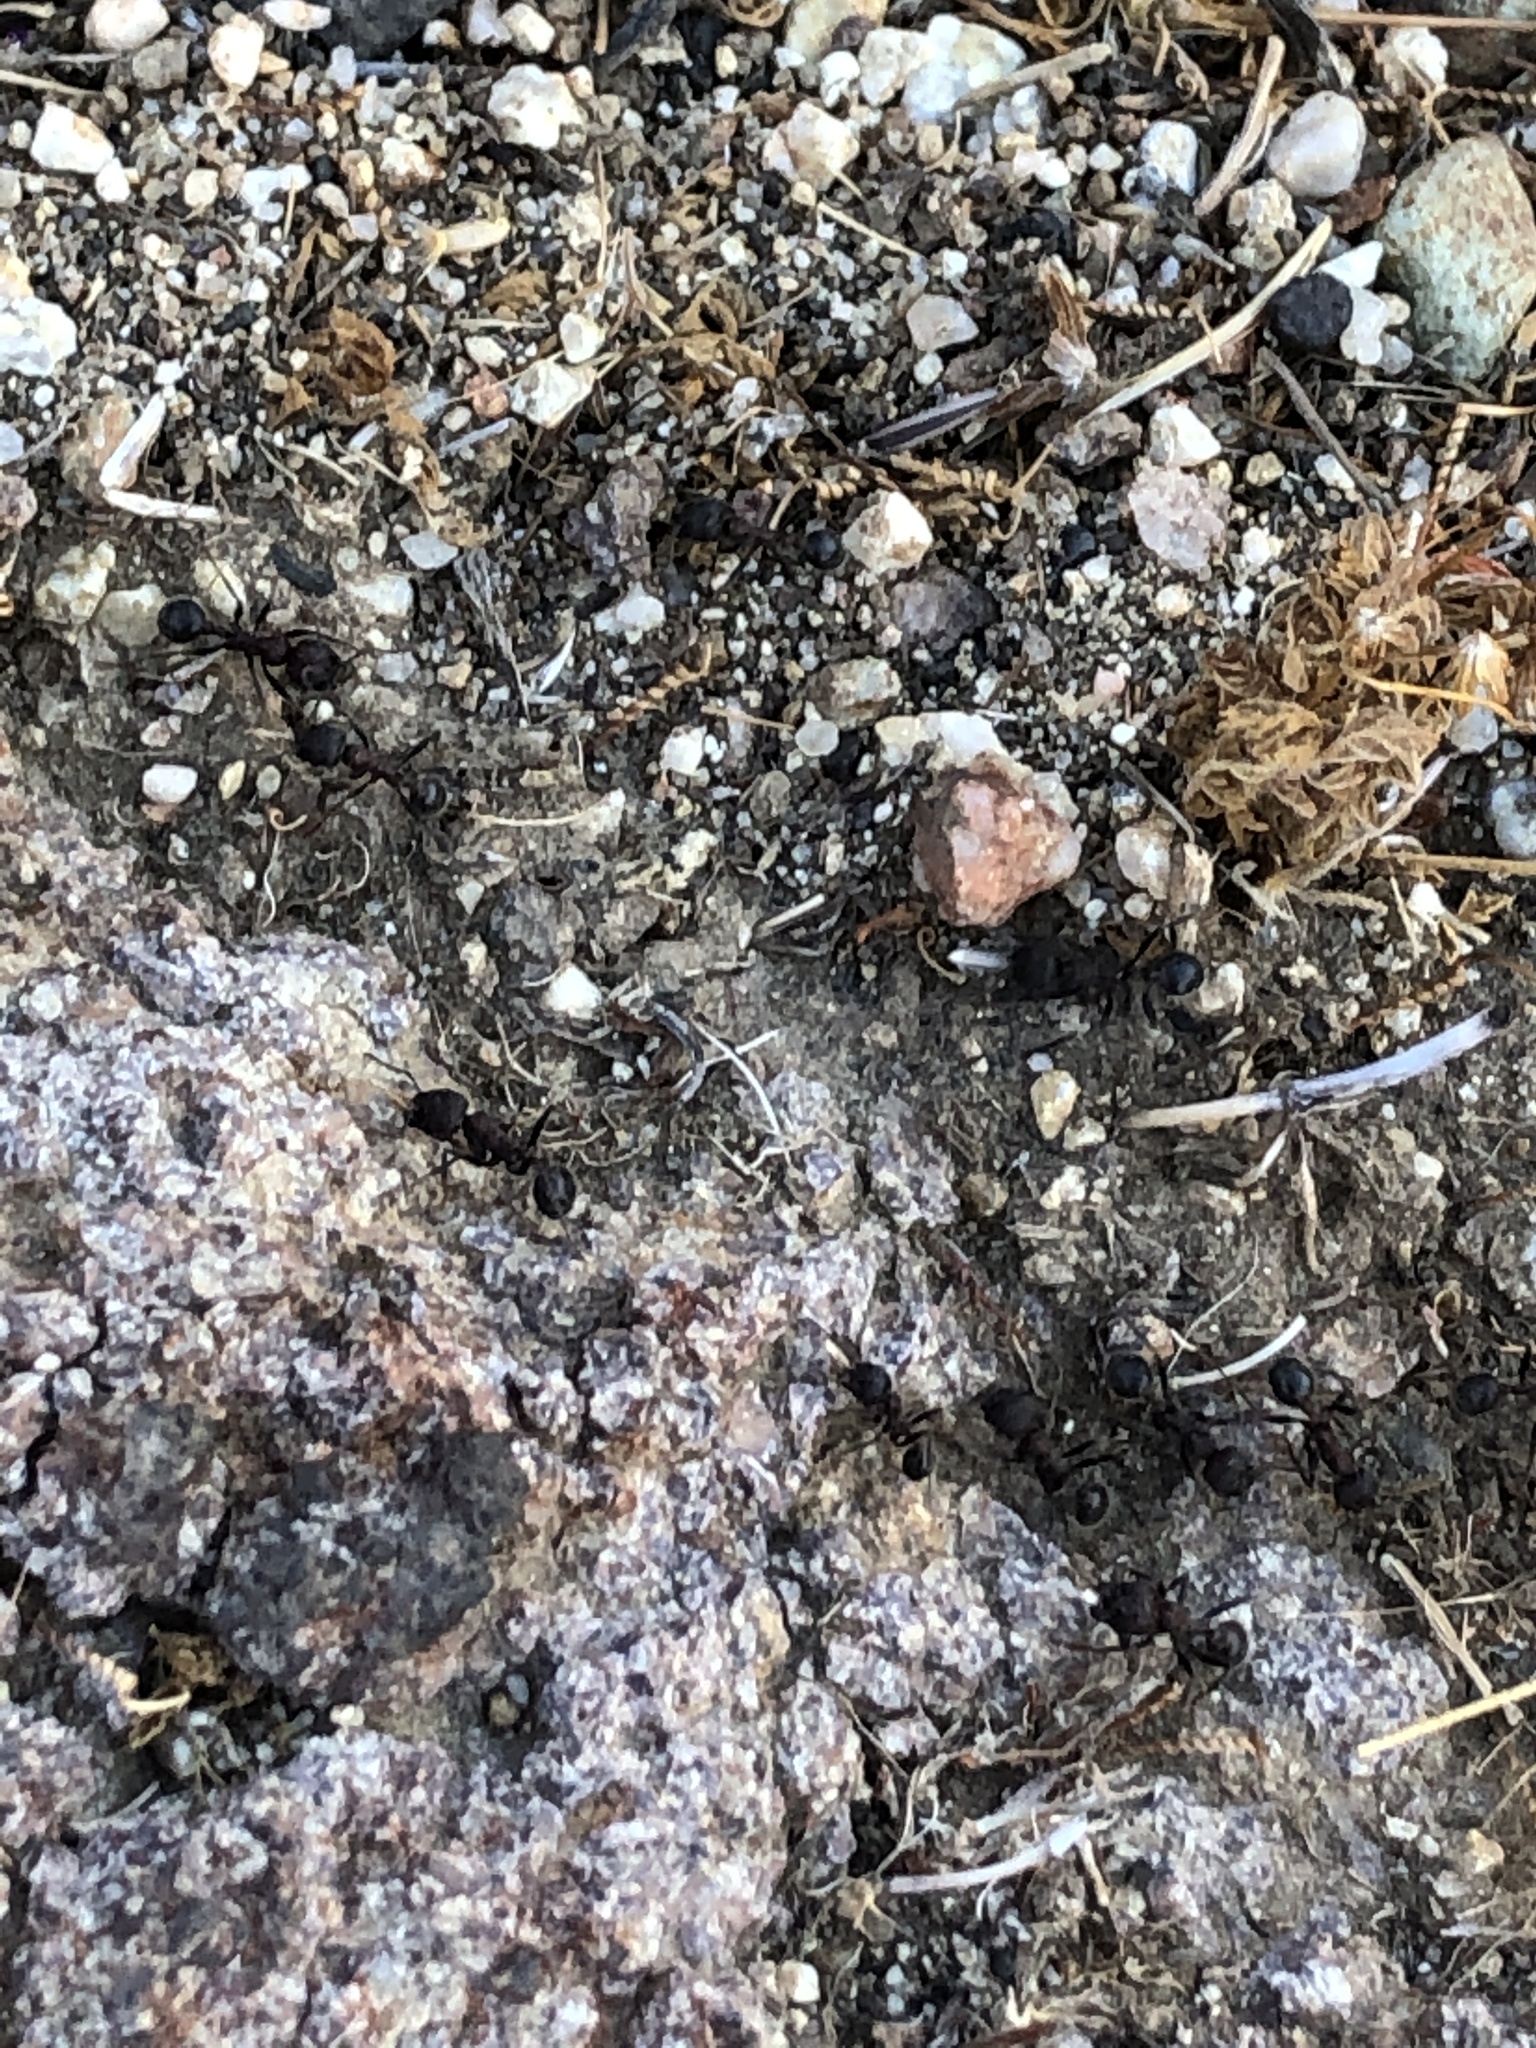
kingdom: Animalia
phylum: Arthropoda
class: Insecta
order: Hymenoptera
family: Formicidae
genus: Veromessor
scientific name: Veromessor andrei
